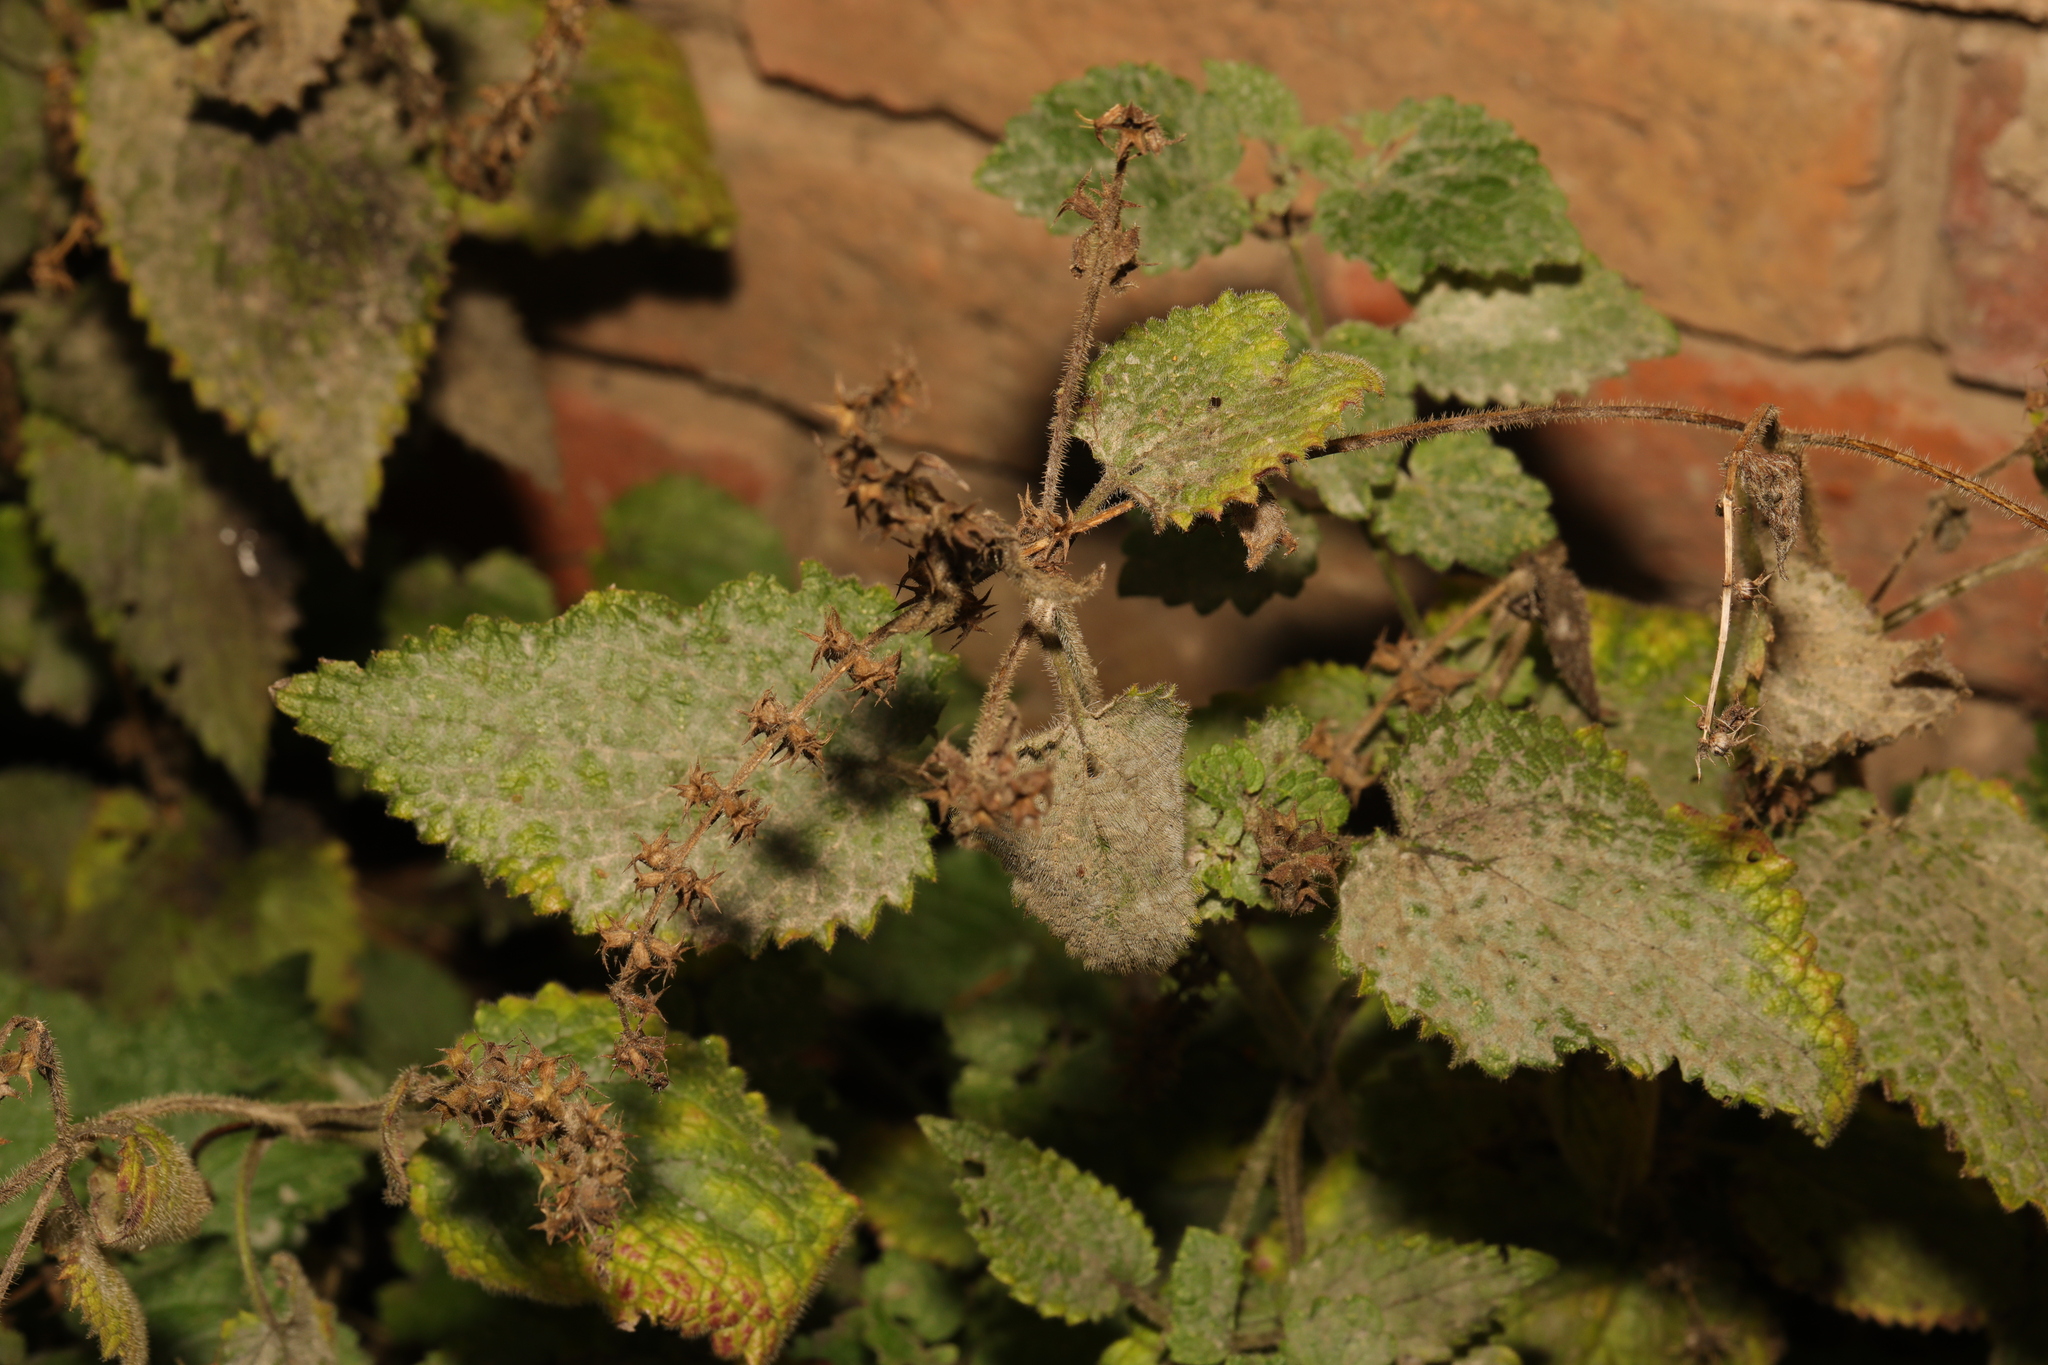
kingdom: Plantae
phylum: Tracheophyta
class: Magnoliopsida
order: Lamiales
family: Lamiaceae
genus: Stachys
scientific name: Stachys sylvatica
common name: Hedge woundwort
